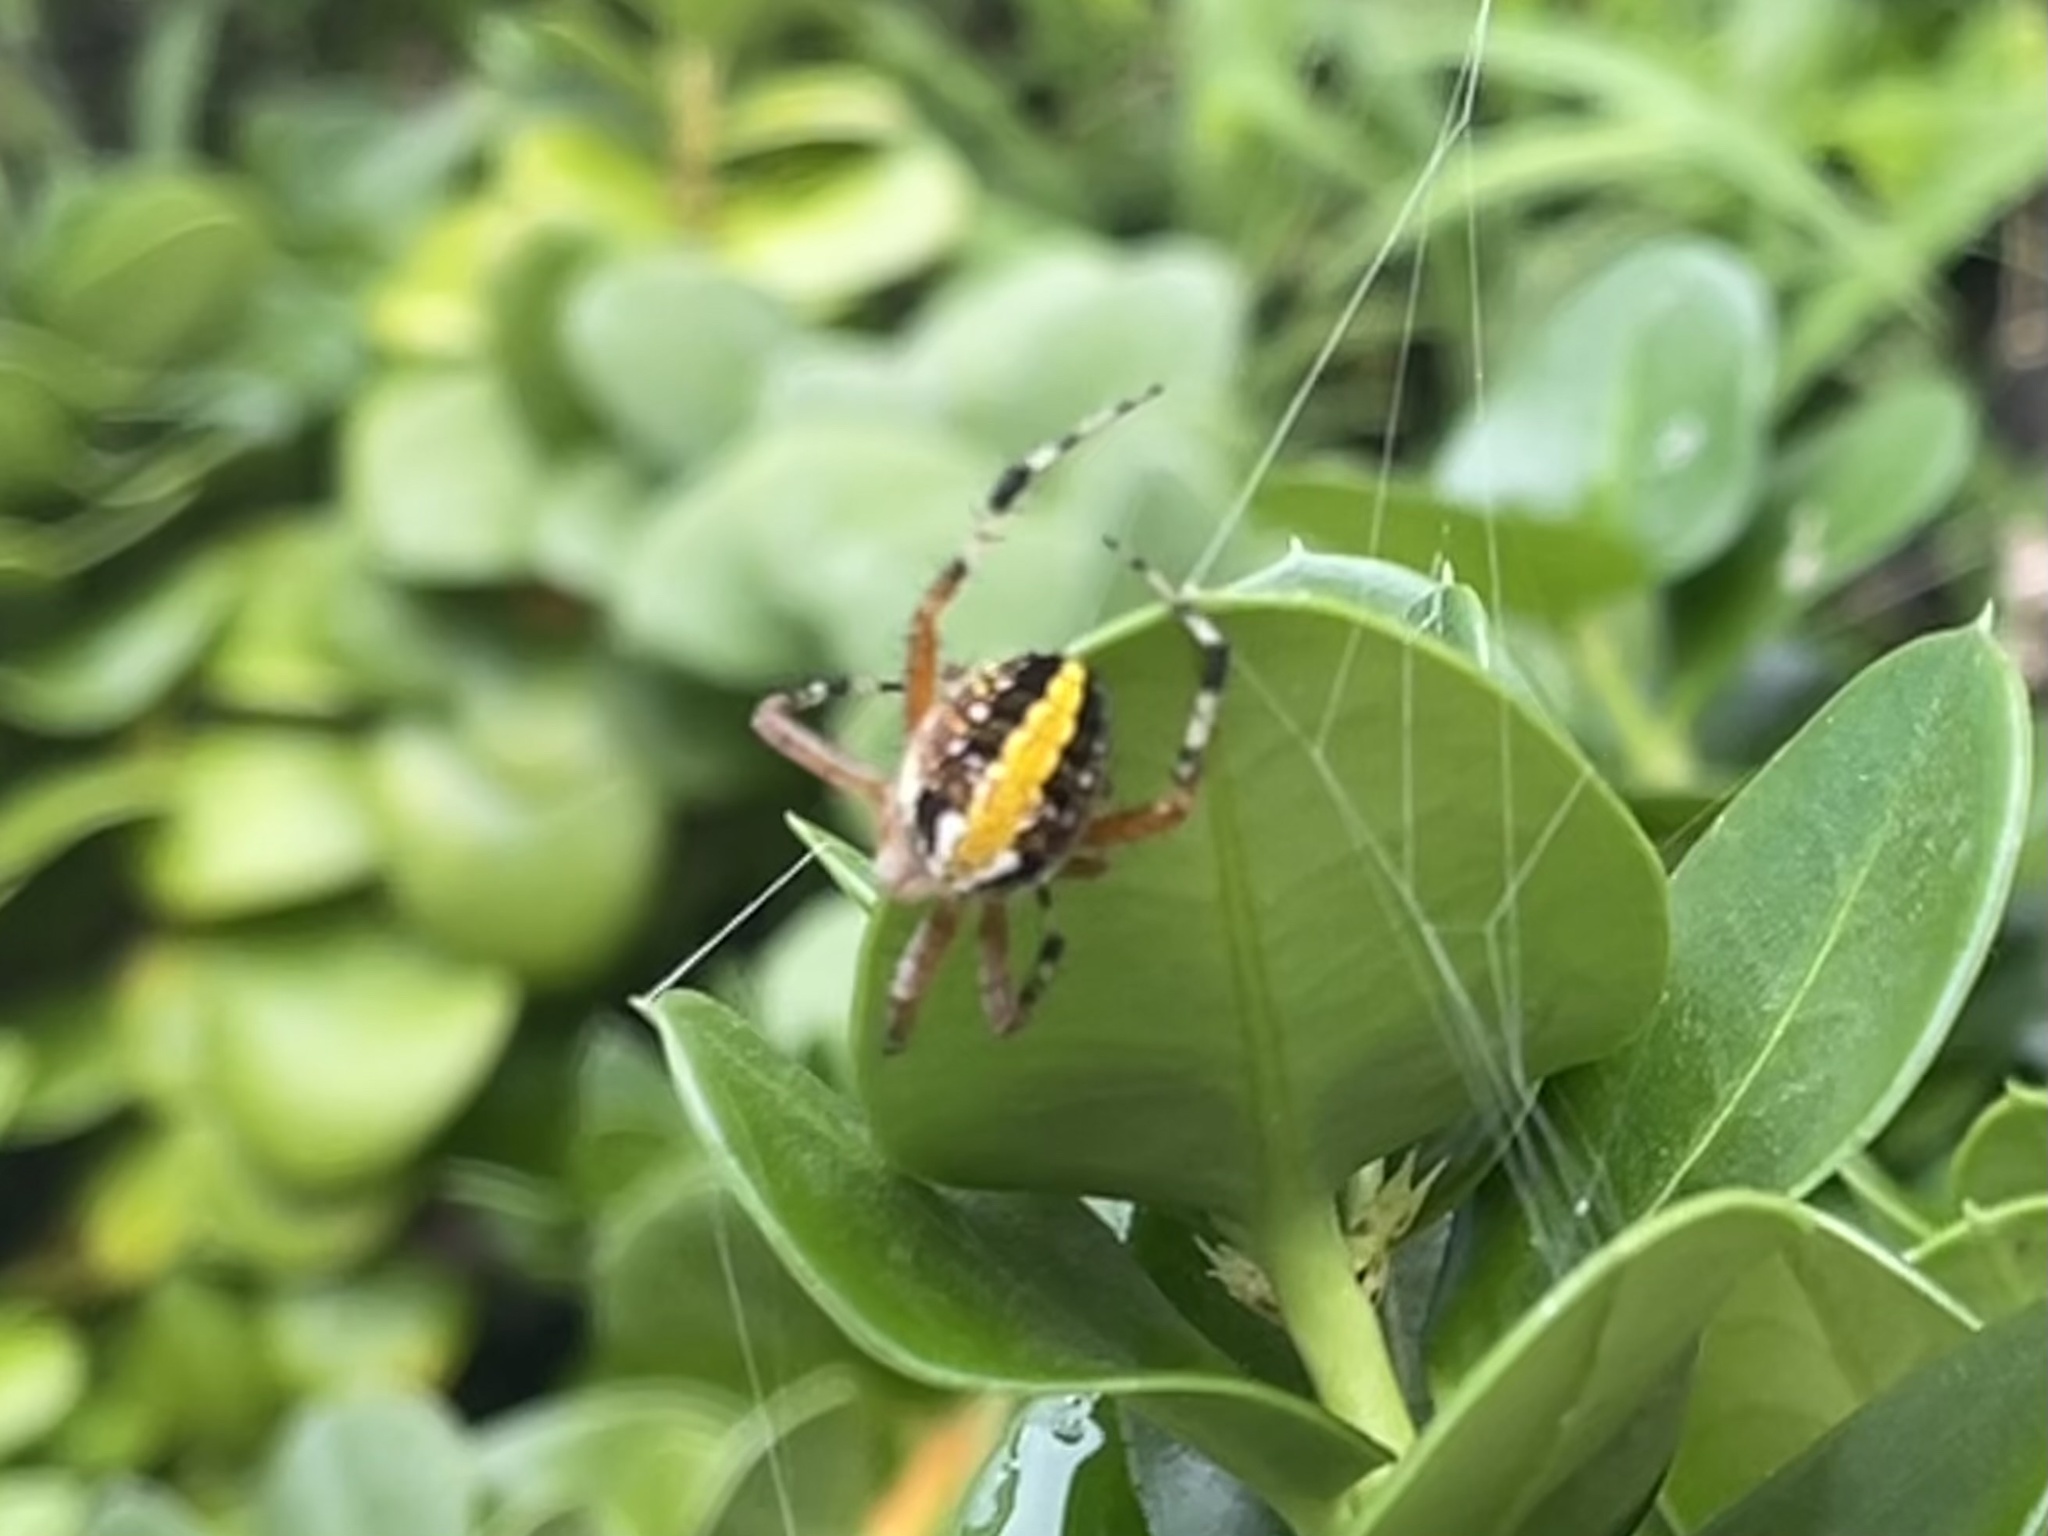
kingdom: Animalia
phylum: Arthropoda
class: Arachnida
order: Araneae
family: Araneidae
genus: Neoscona
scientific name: Neoscona oaxacensis
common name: Orb weavers
